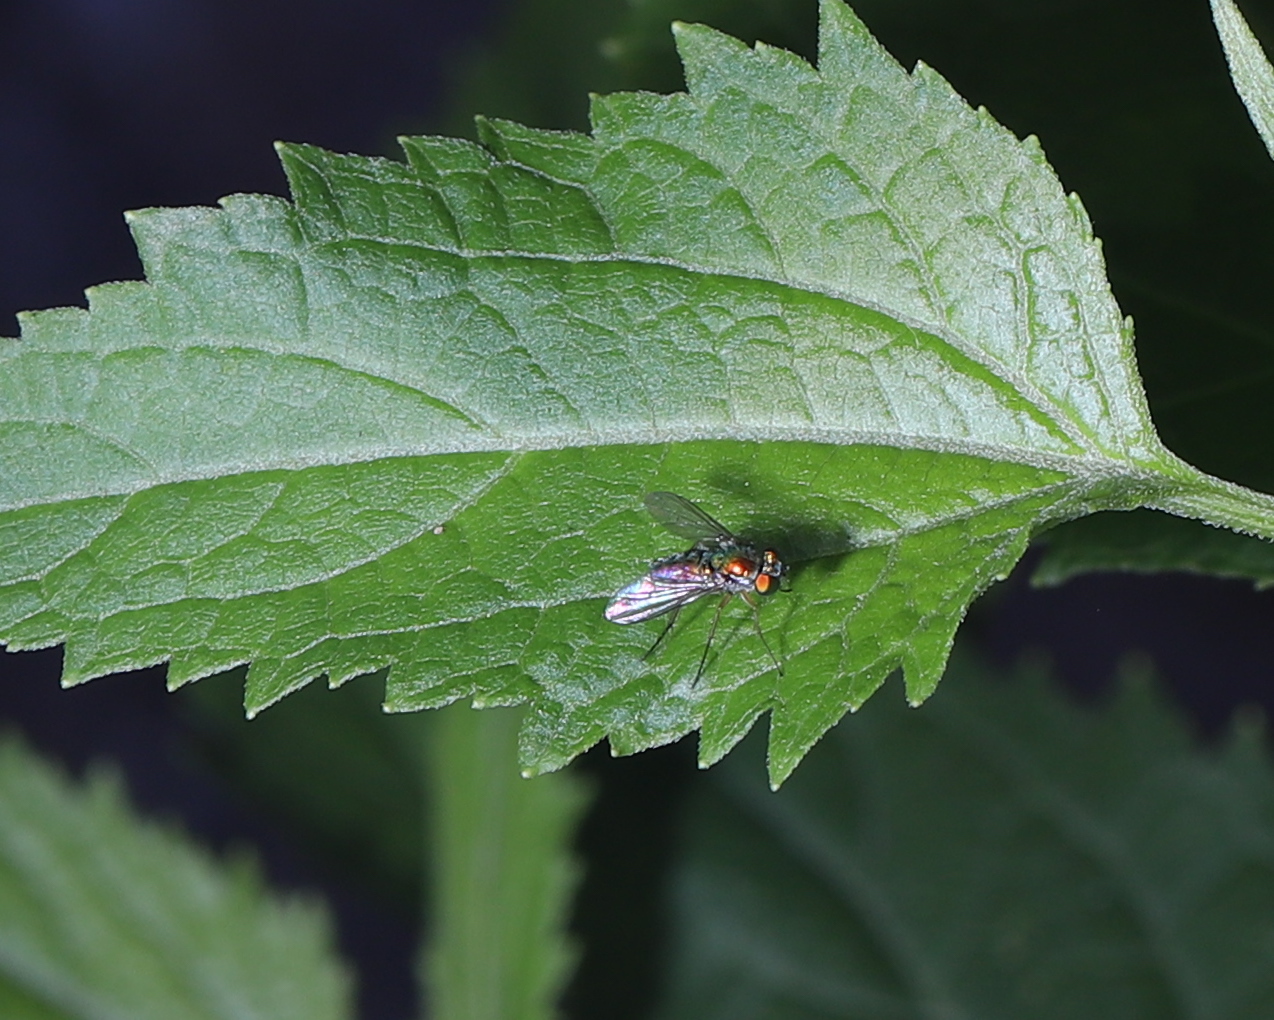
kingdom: Plantae
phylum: Tracheophyta
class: Magnoliopsida
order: Asterales
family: Asteraceae
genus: Ageratina
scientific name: Ageratina altissima
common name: White snakeroot
